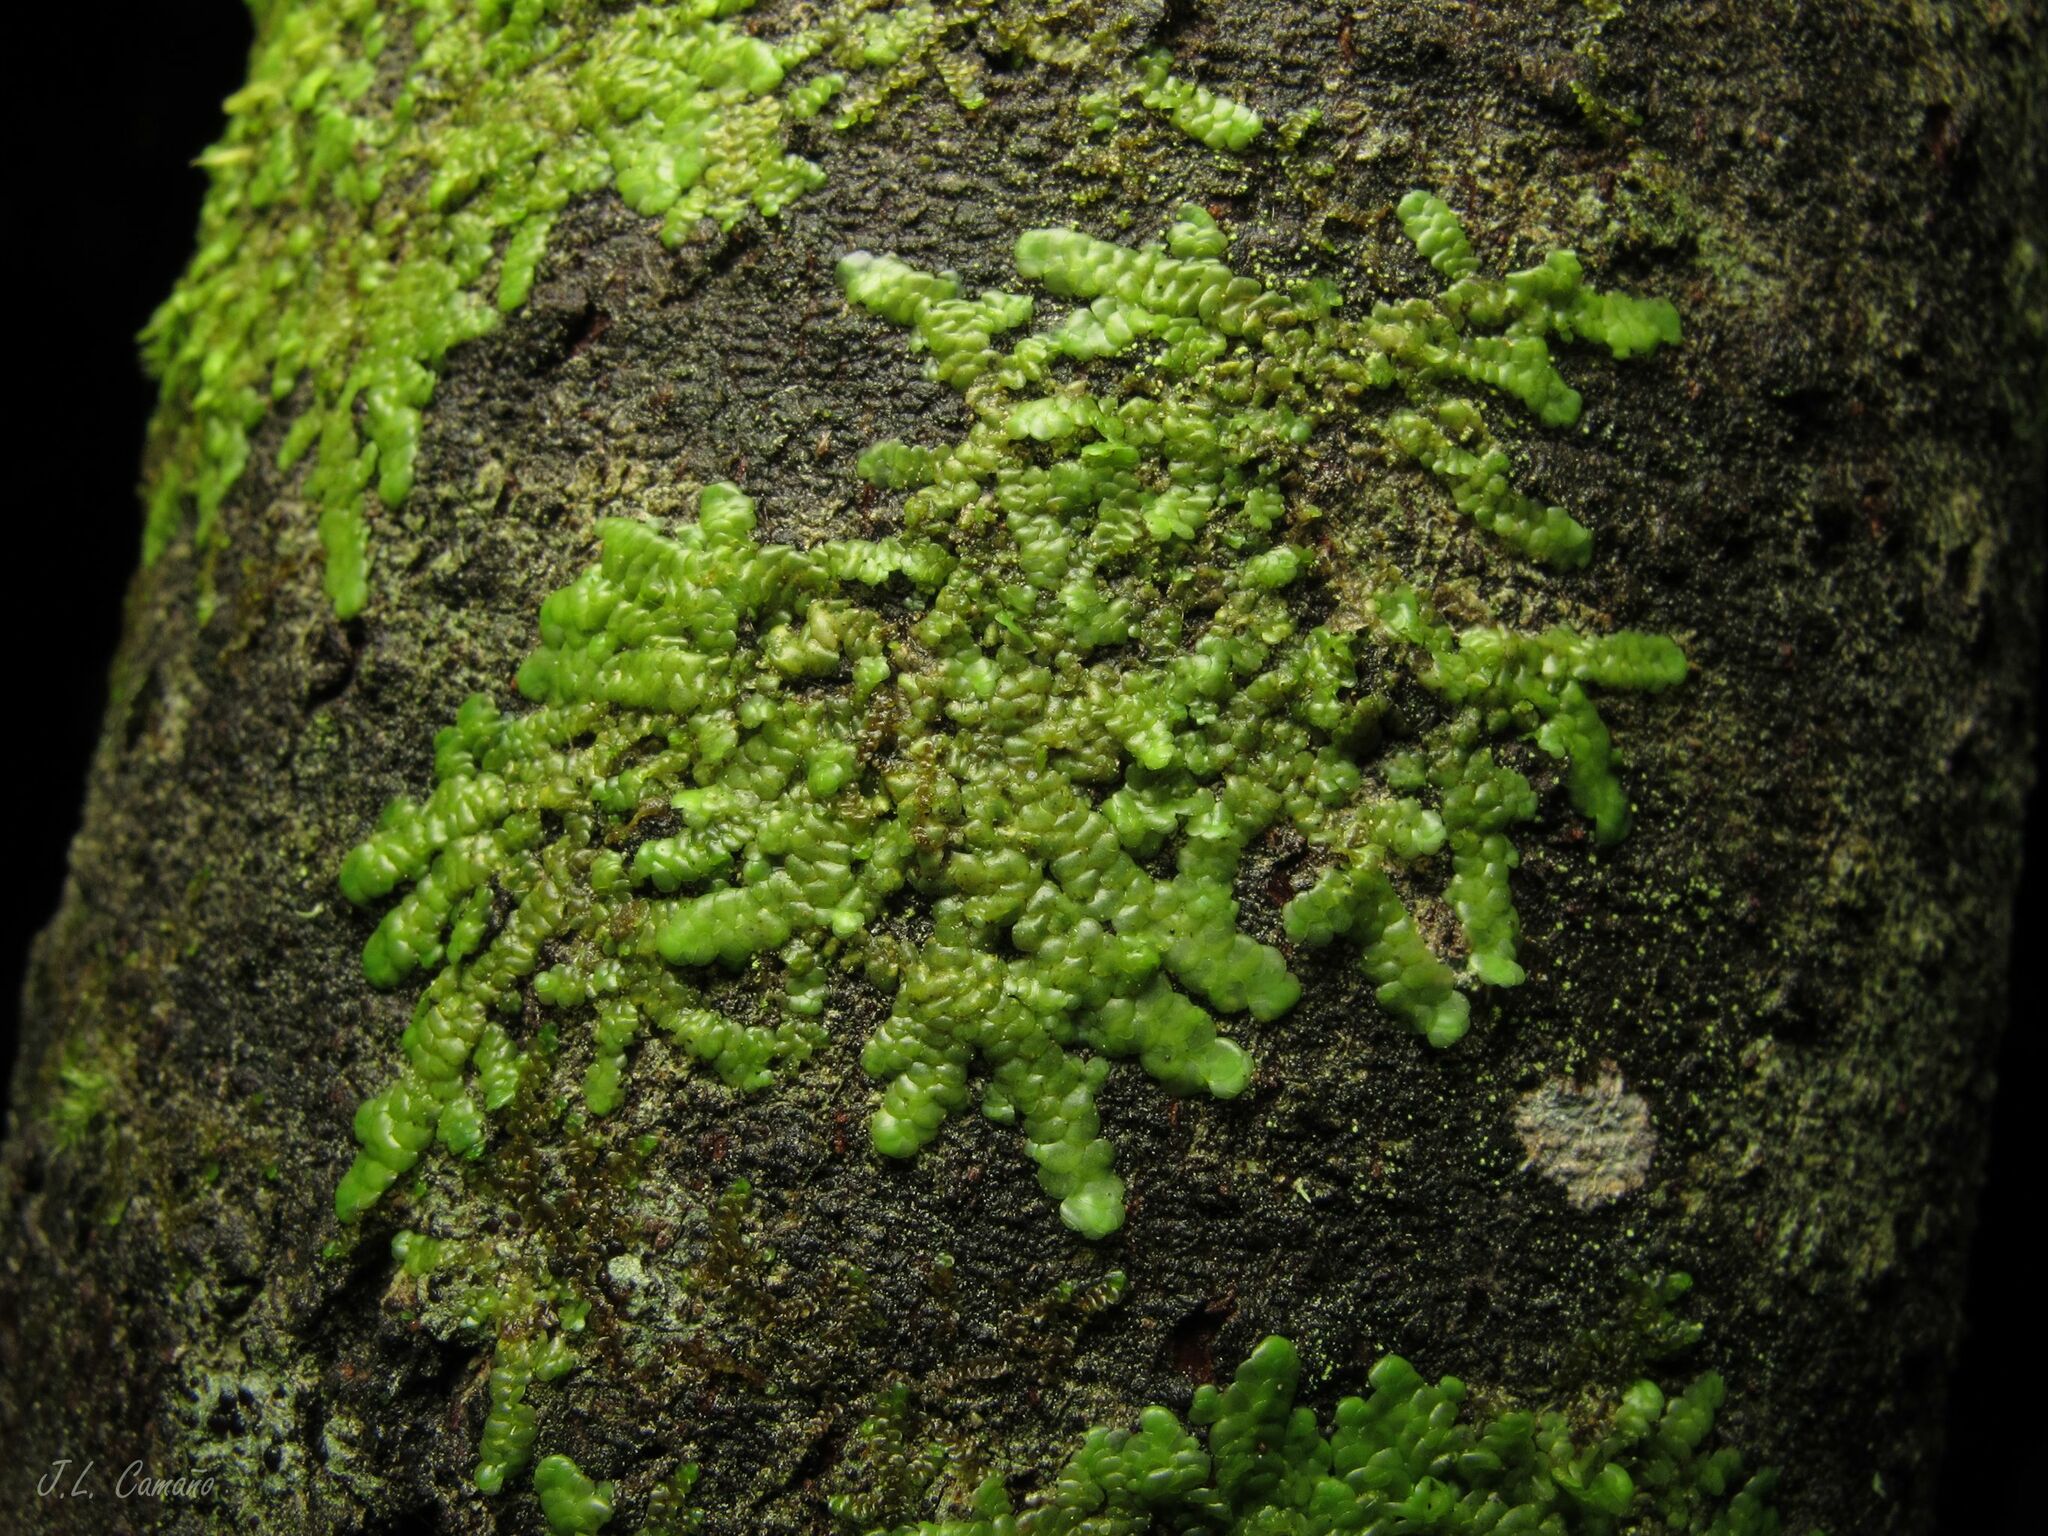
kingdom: Plantae
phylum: Marchantiophyta
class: Jungermanniopsida
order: Porellales
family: Radulaceae
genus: Radula
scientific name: Radula complanata
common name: Flat-leaved scalewort
